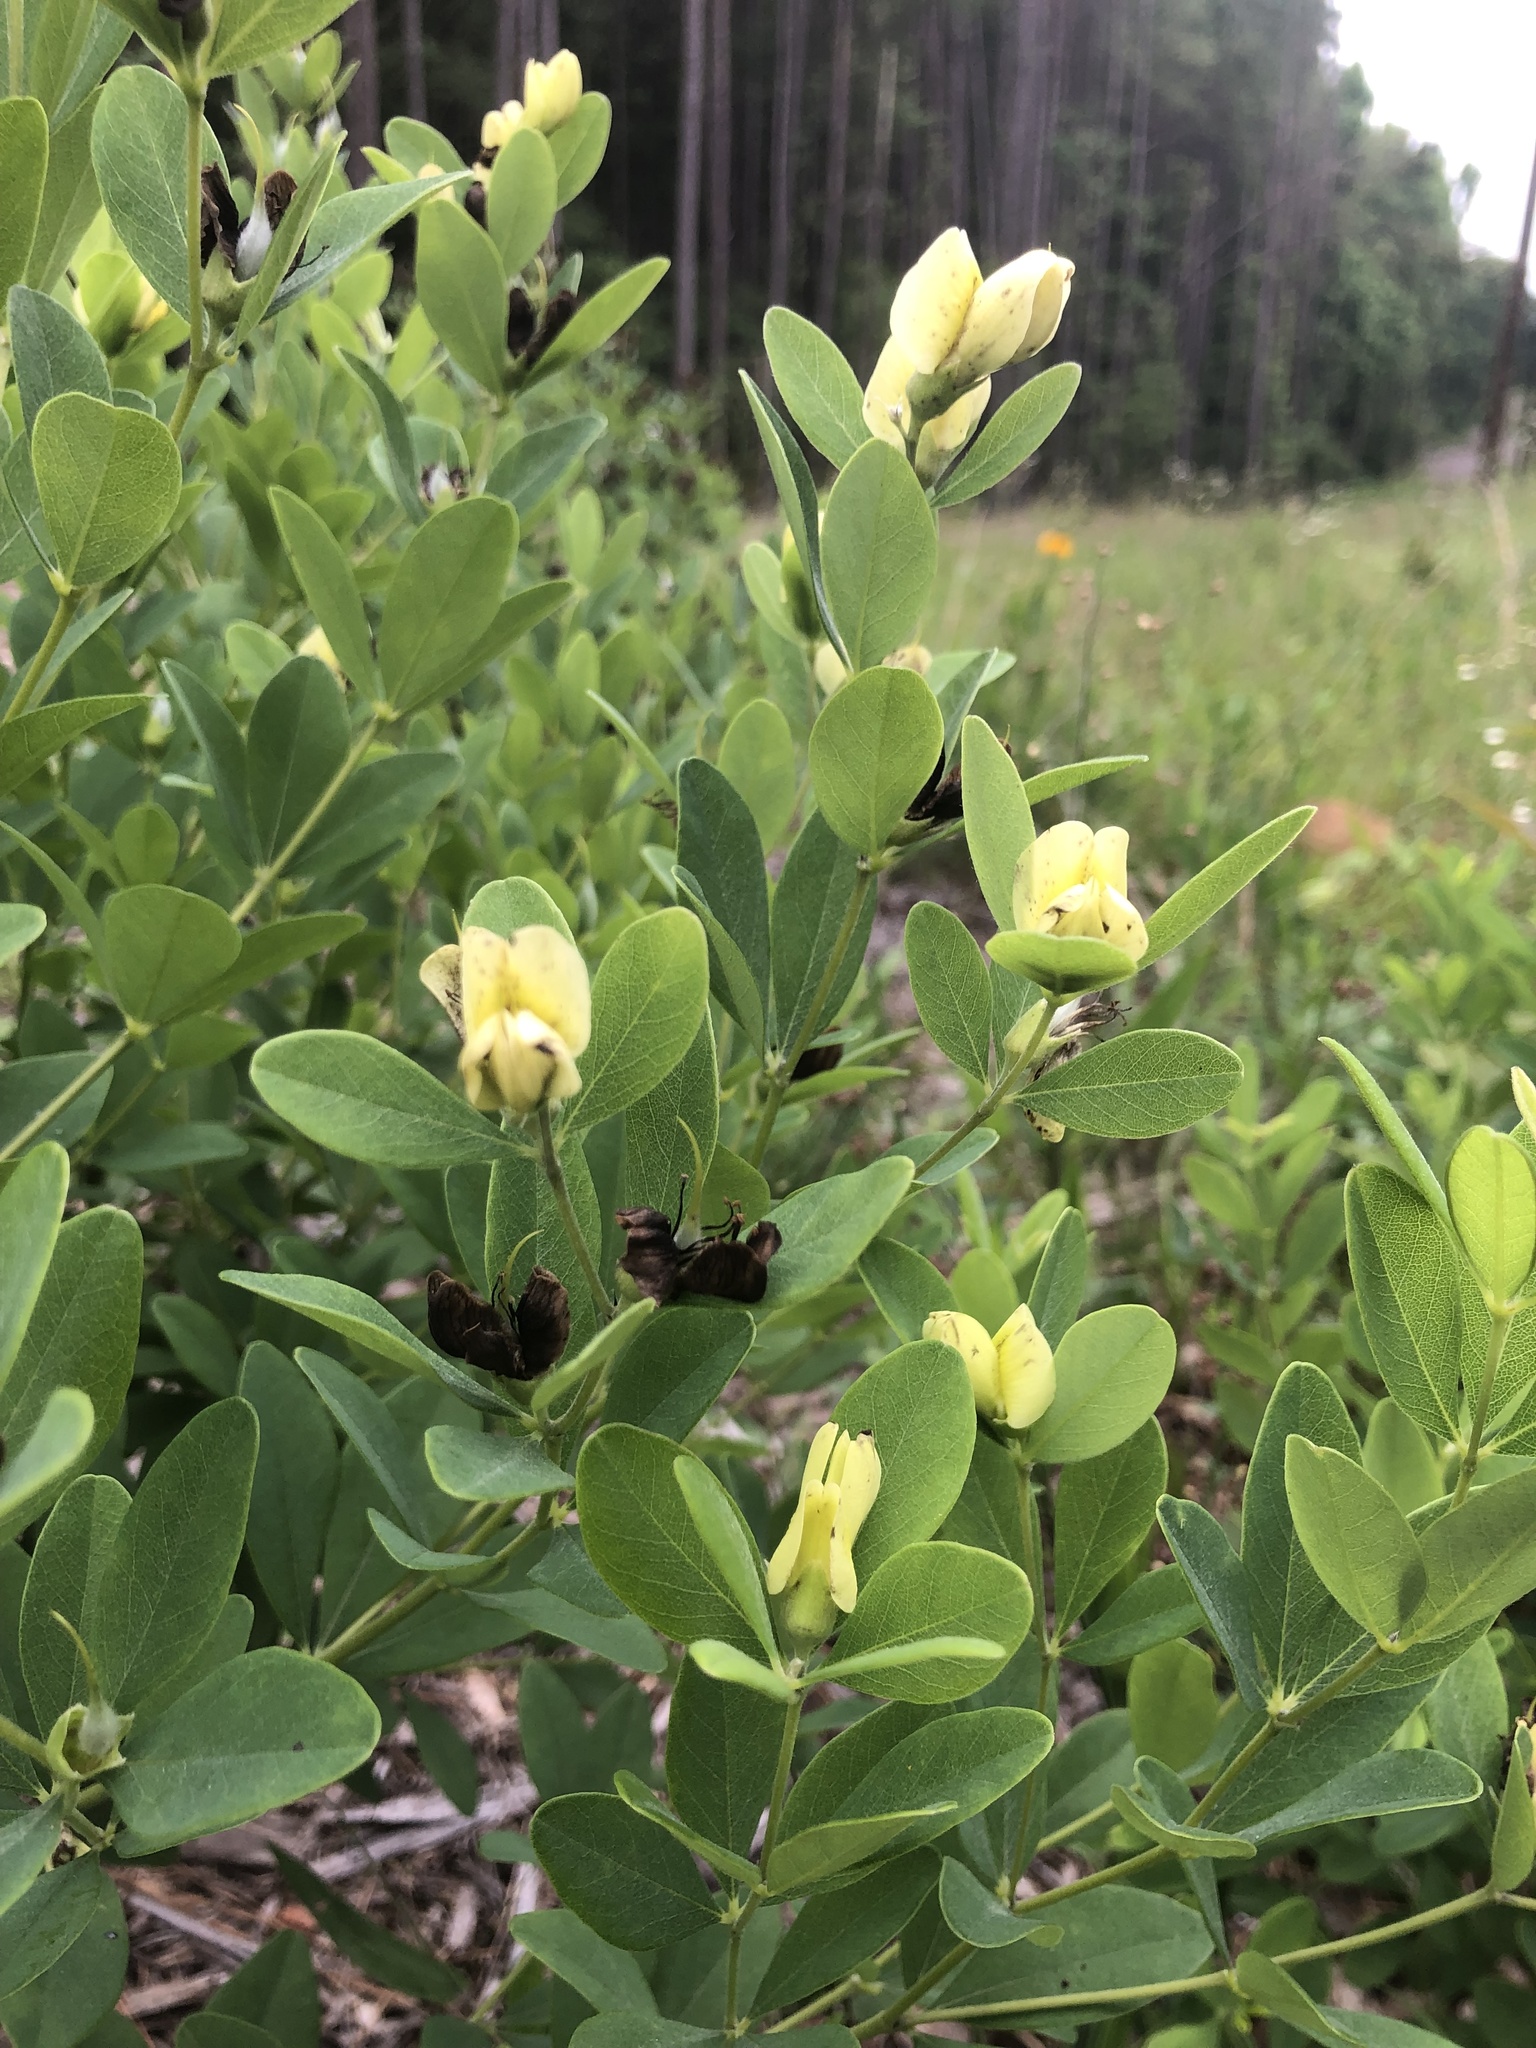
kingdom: Plantae
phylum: Tracheophyta
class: Magnoliopsida
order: Fabales
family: Fabaceae
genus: Baptisia
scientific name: Baptisia nuttalliana
